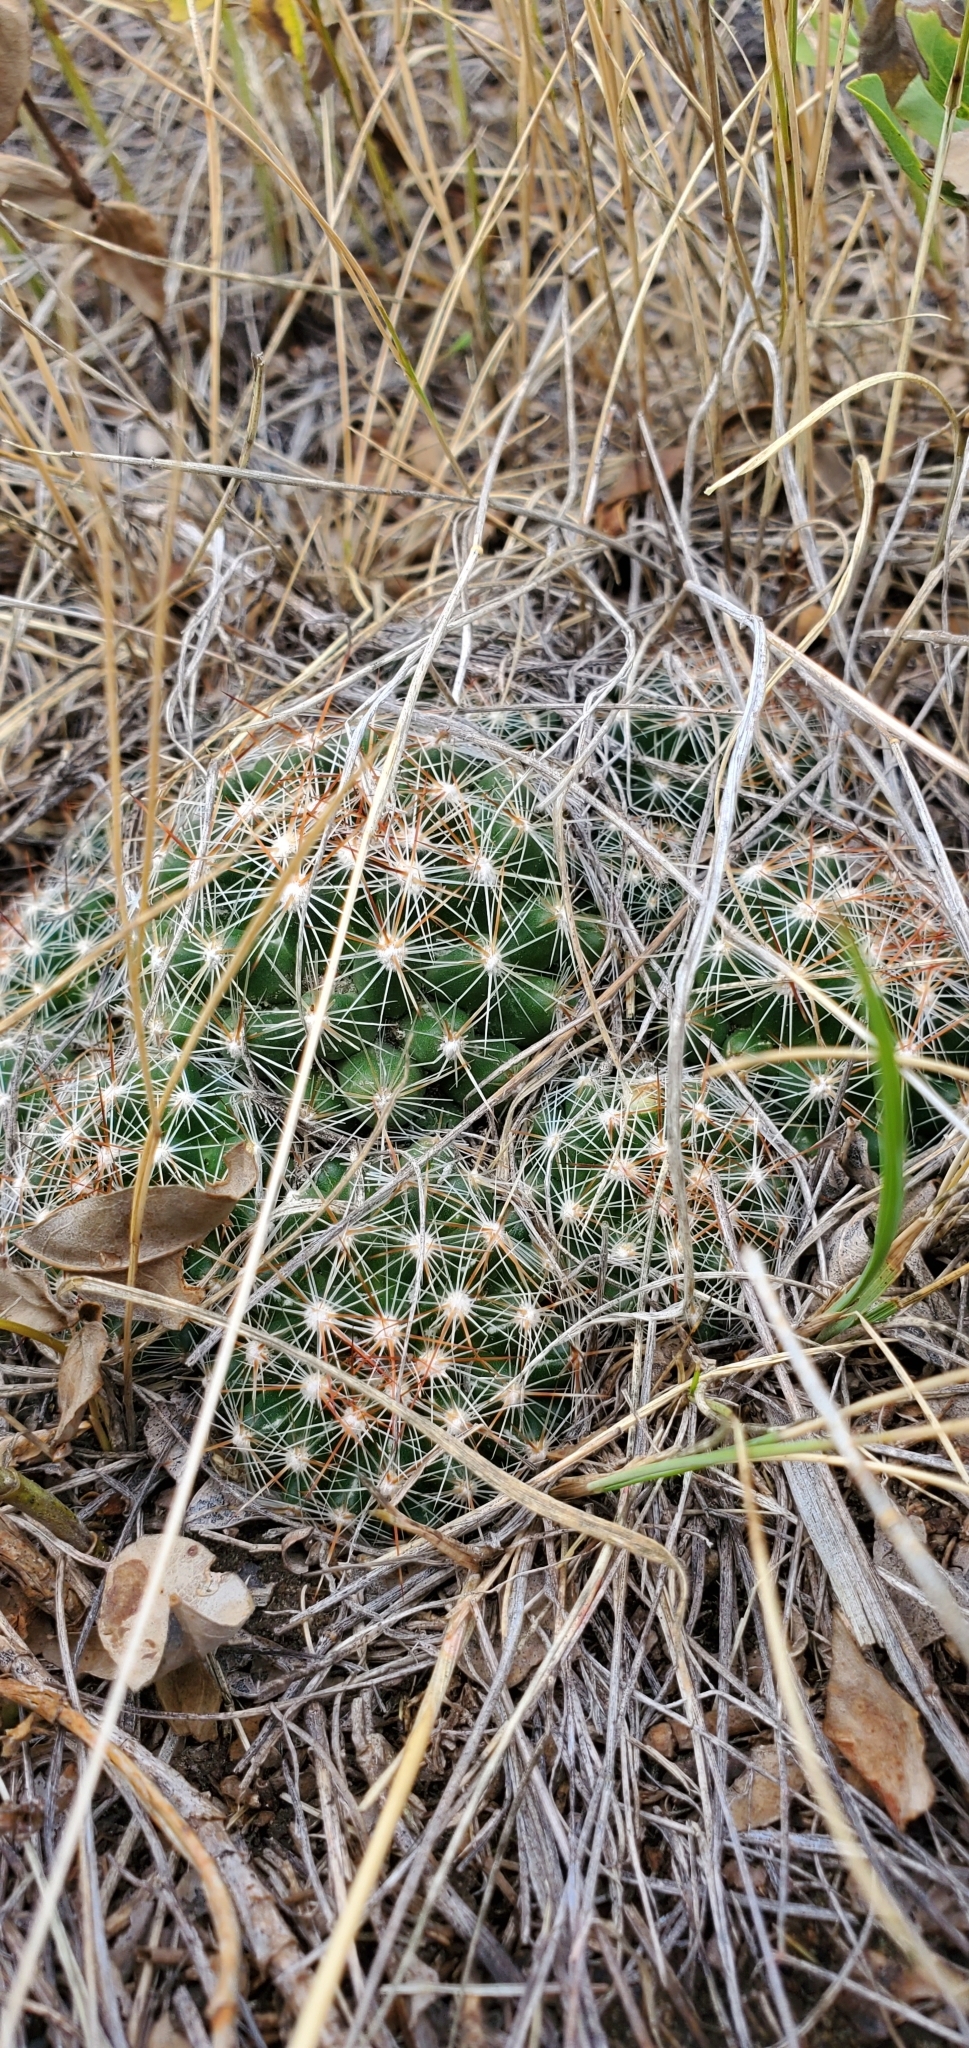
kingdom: Plantae
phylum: Tracheophyta
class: Magnoliopsida
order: Caryophyllales
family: Cactaceae
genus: Pelecyphora
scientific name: Pelecyphora vivipara
